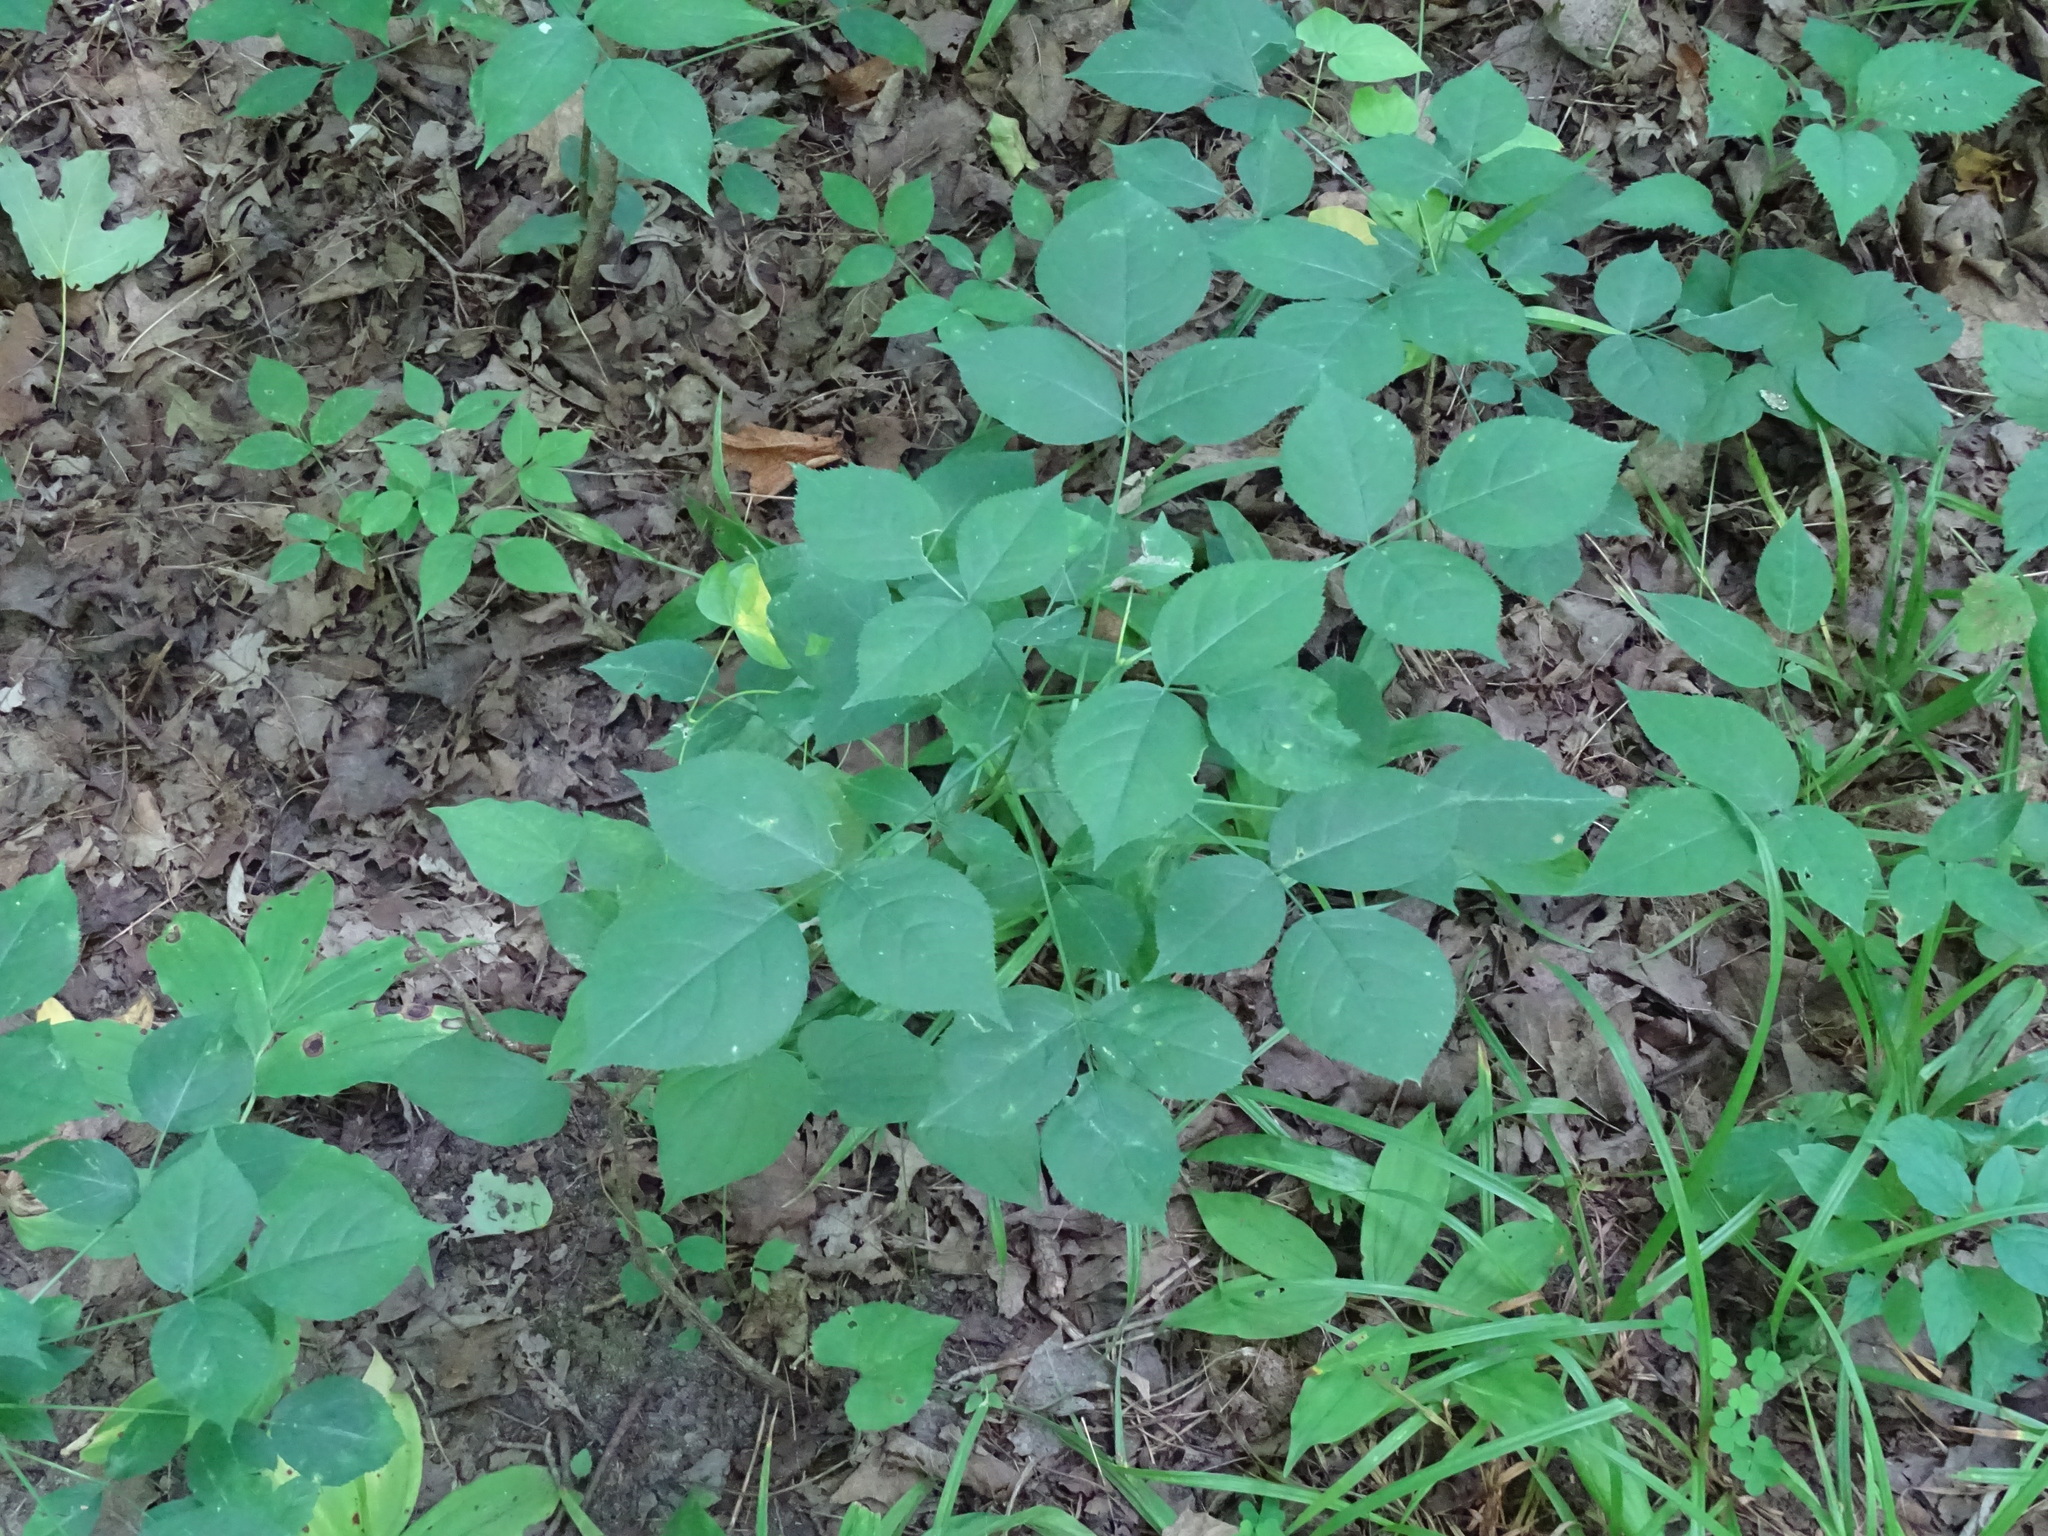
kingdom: Plantae
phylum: Tracheophyta
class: Magnoliopsida
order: Crossosomatales
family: Staphyleaceae
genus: Staphylea
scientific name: Staphylea trifolia
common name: American bladdernut
